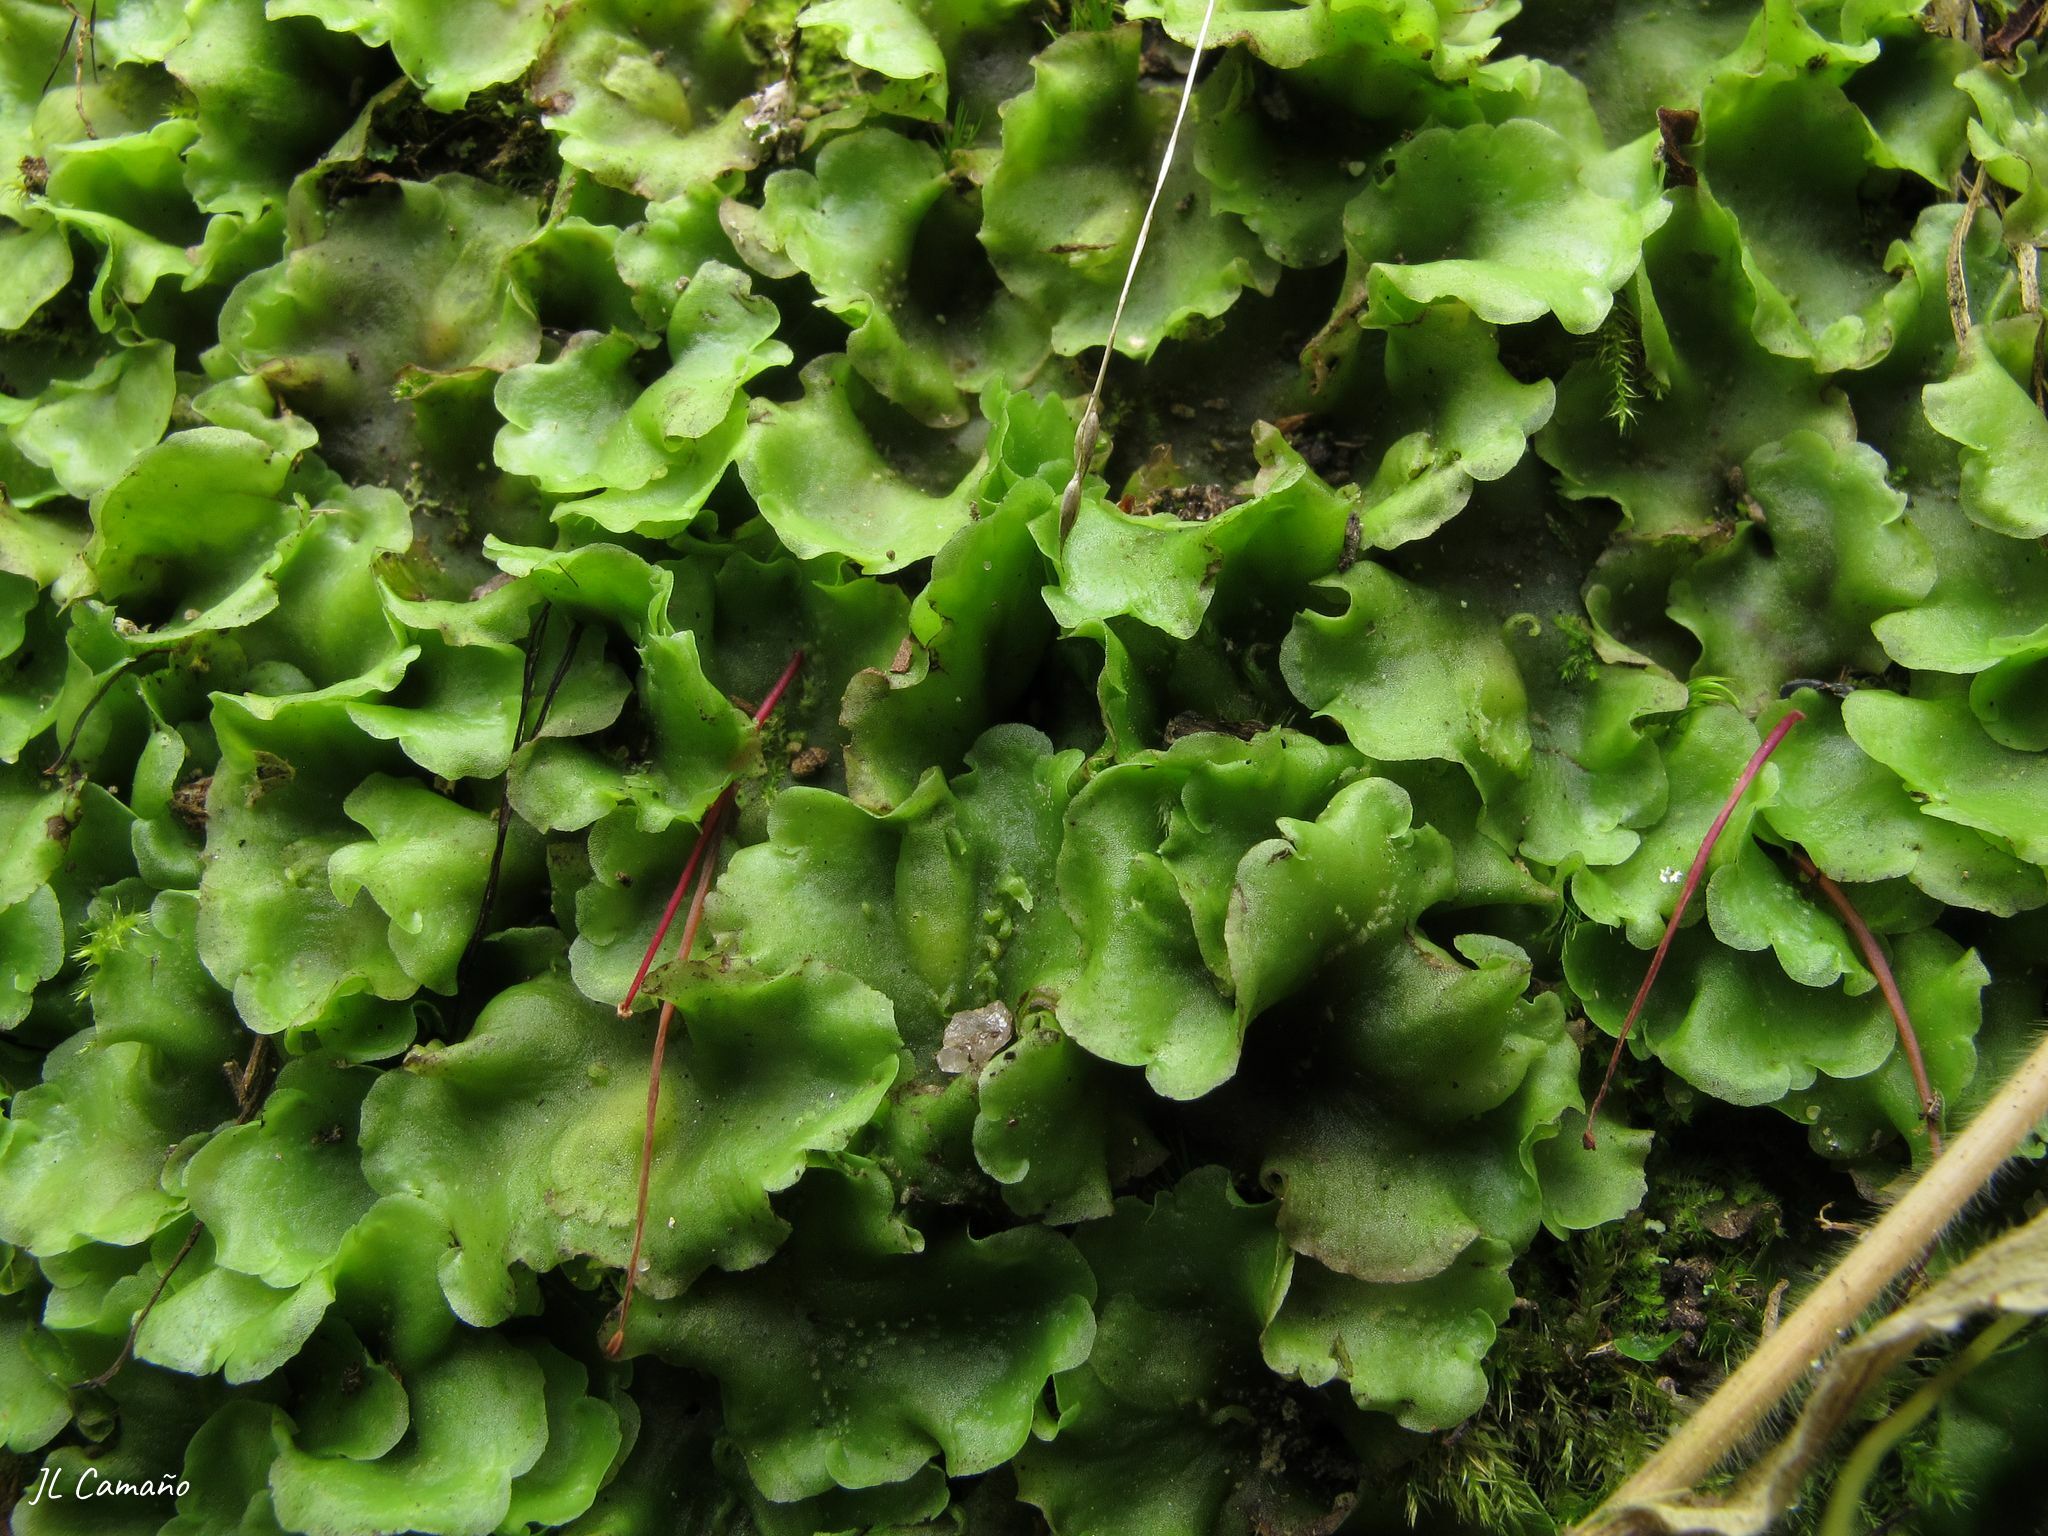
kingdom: Plantae
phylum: Marchantiophyta
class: Jungermanniopsida
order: Pelliales
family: Pelliaceae
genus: Pellia
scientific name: Pellia epiphylla
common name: Common pellia
